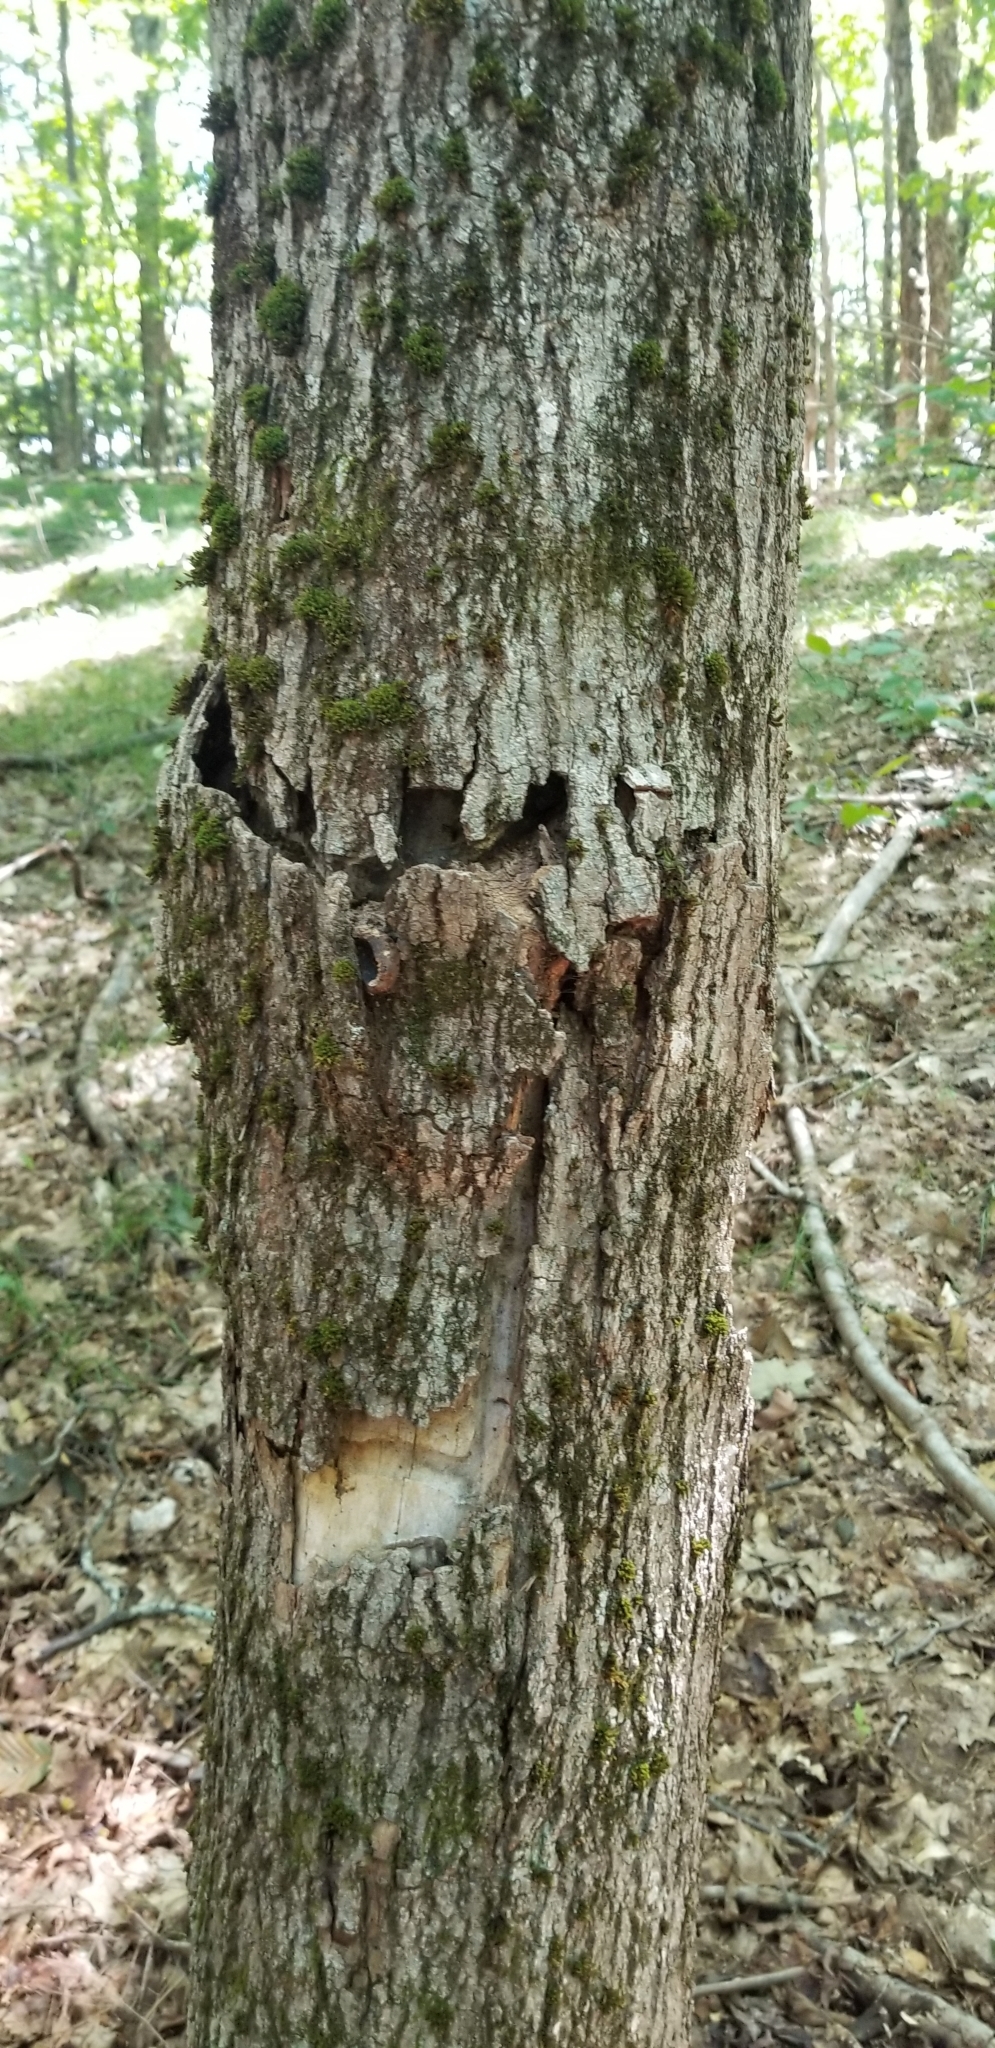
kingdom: Animalia
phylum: Arthropoda
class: Insecta
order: Coleoptera
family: Cerambycidae
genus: Glycobius
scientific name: Glycobius speciosus
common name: Sugar maple borer
